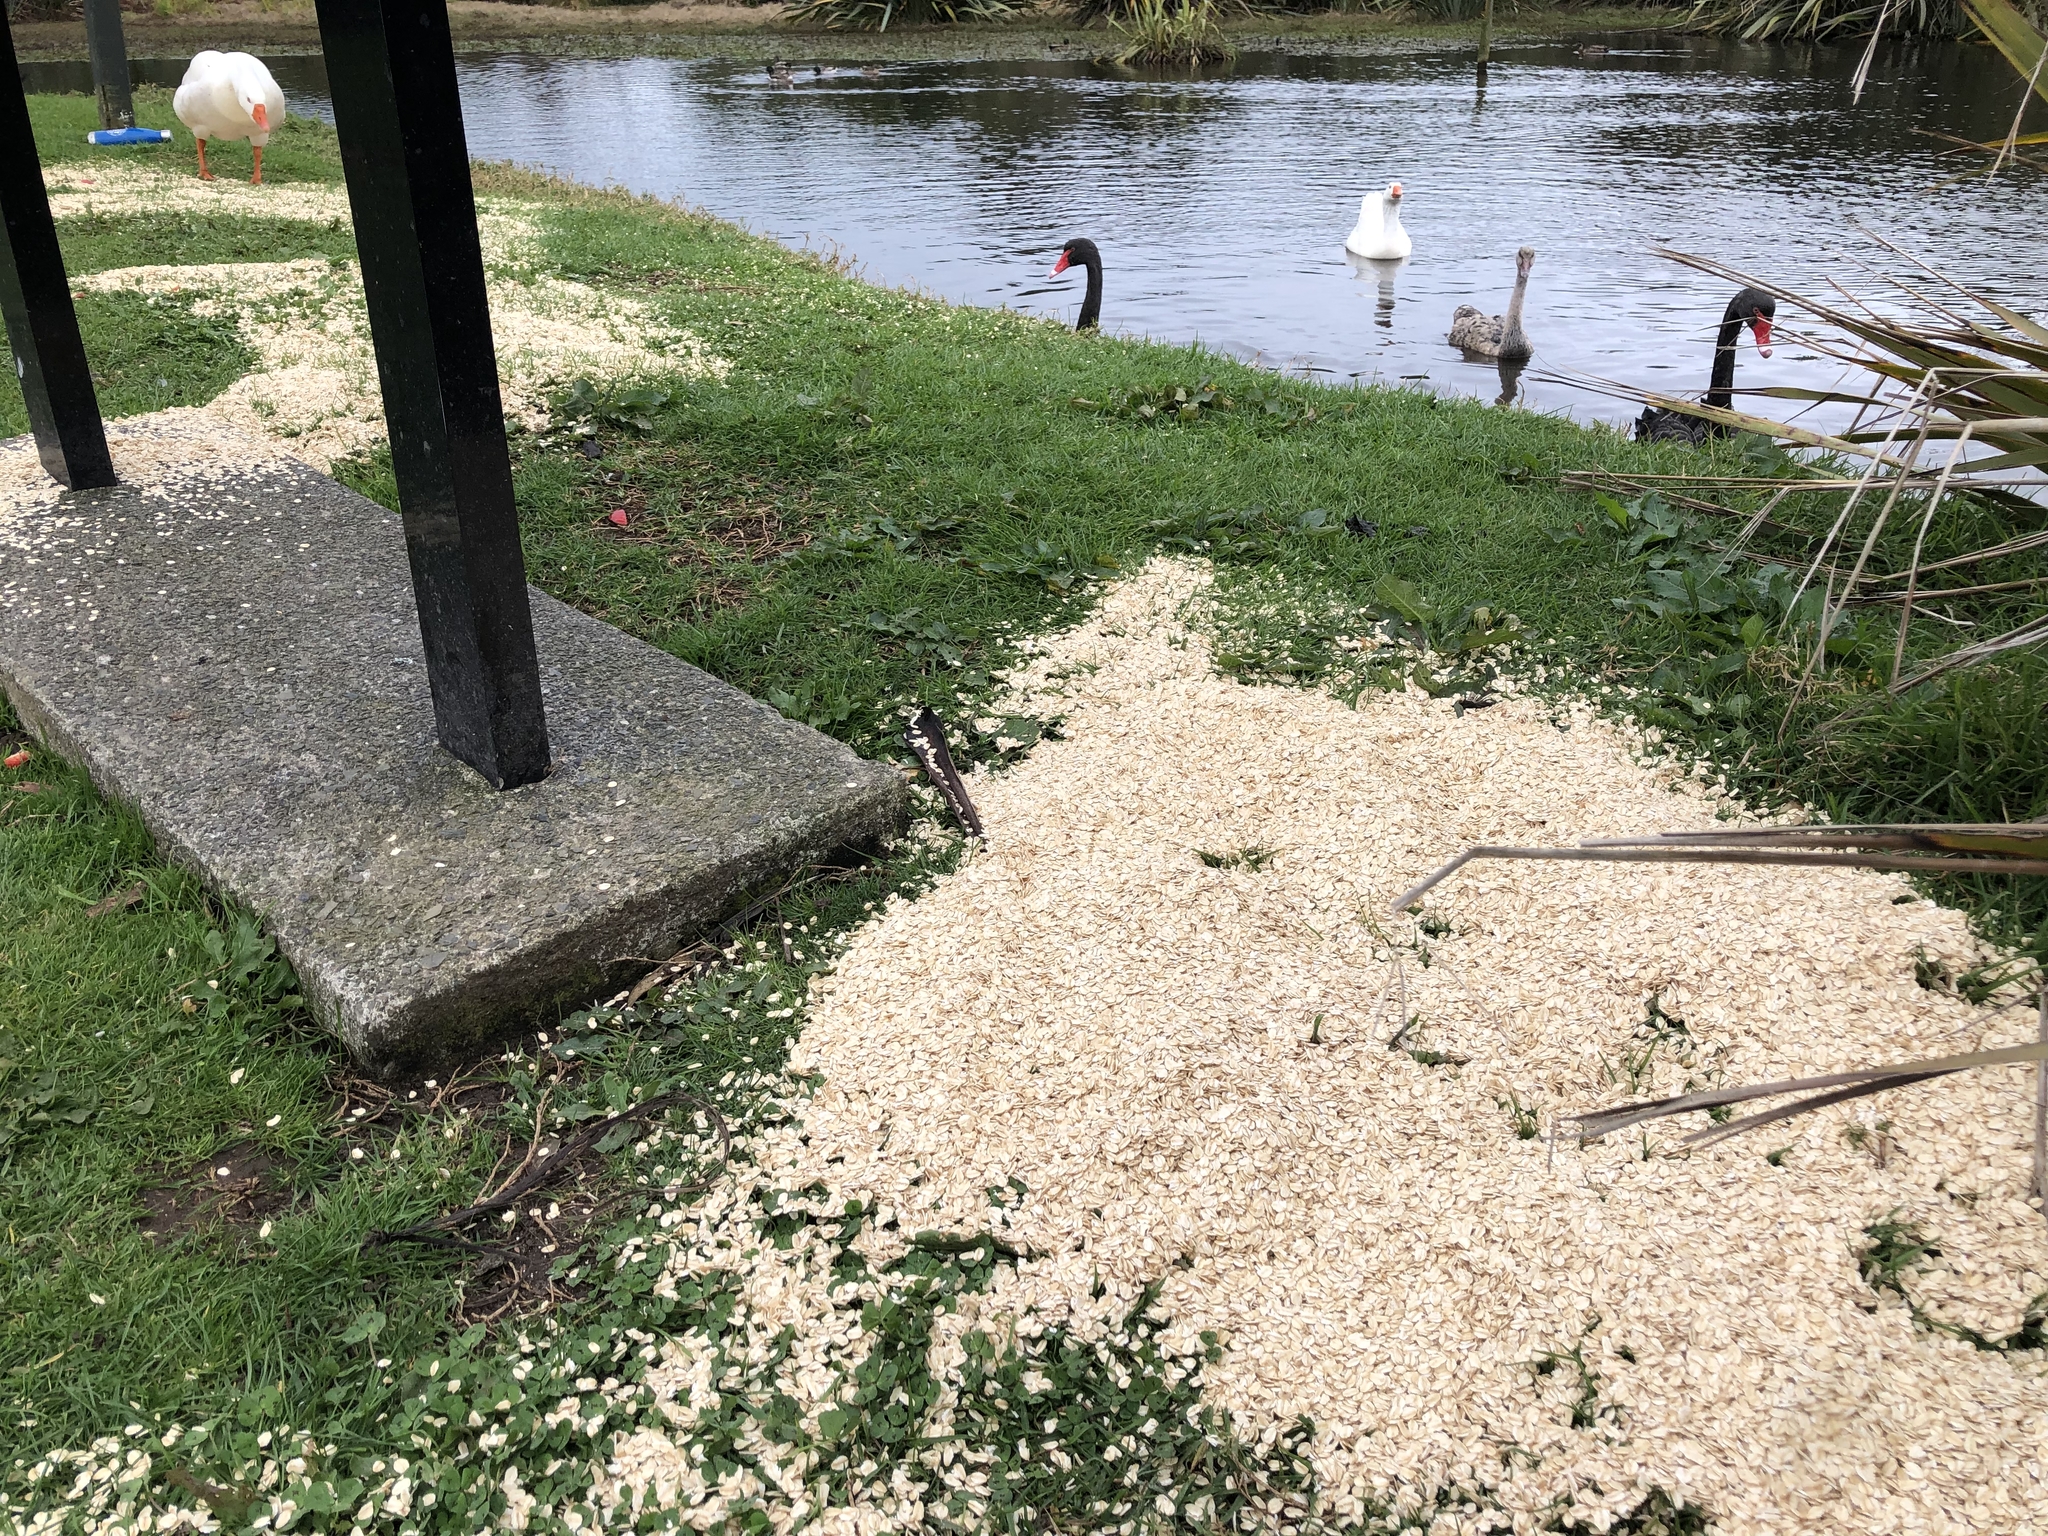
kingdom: Animalia
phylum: Chordata
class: Aves
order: Columbiformes
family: Columbidae
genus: Columba
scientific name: Columba livia
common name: Rock pigeon
